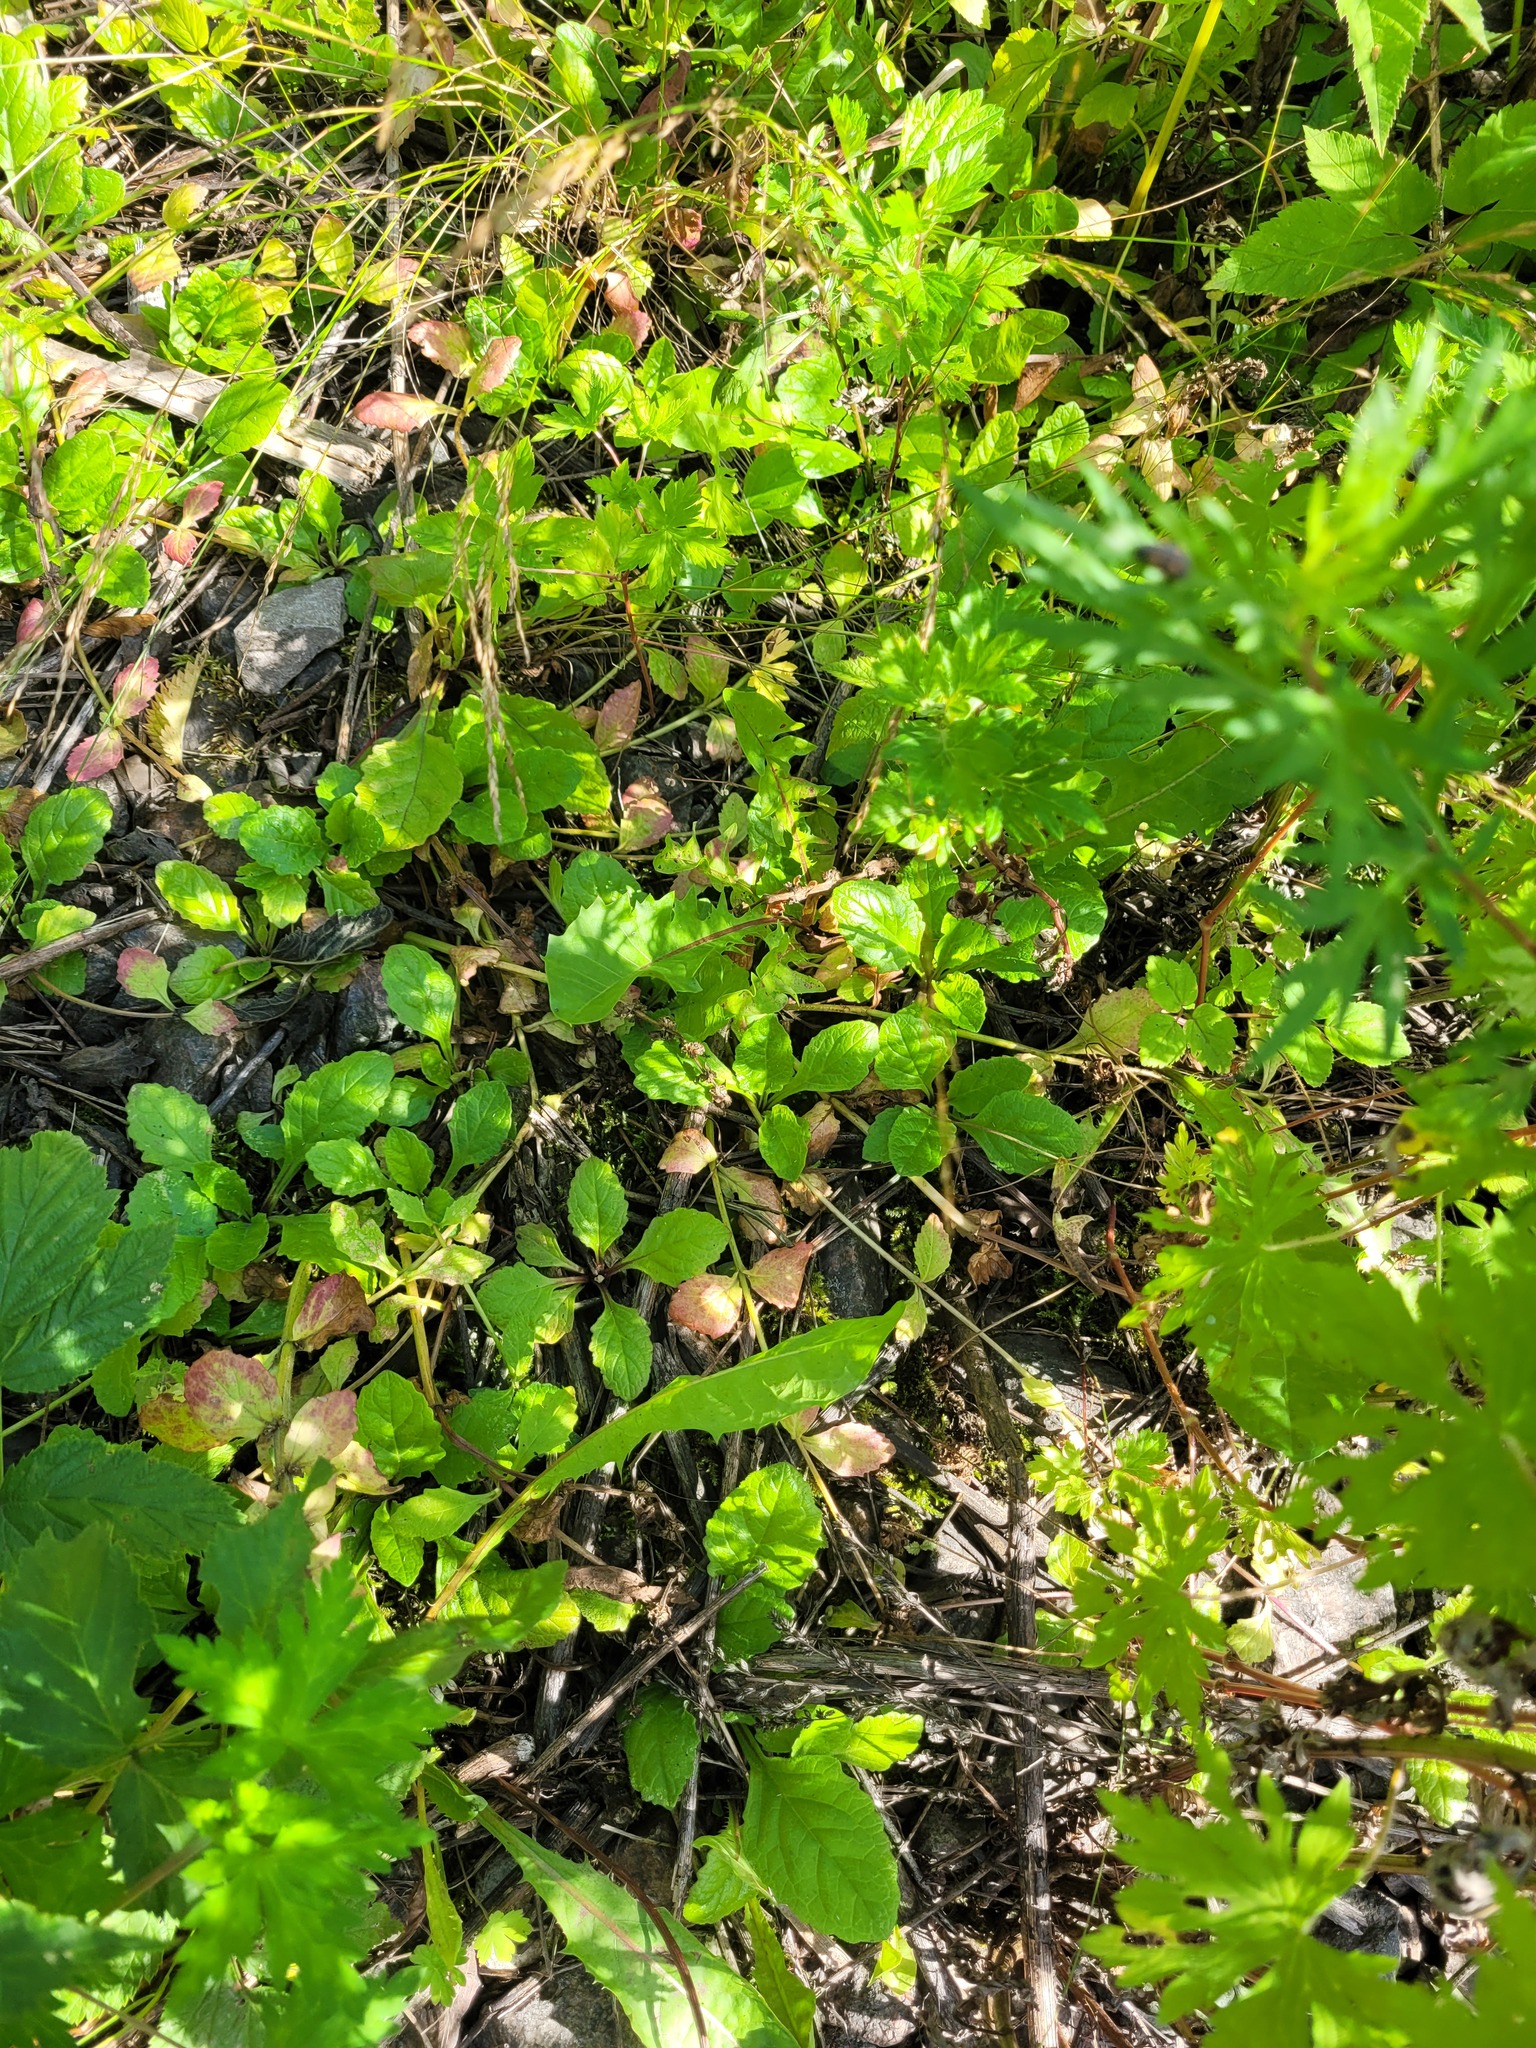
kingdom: Plantae
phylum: Tracheophyta
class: Magnoliopsida
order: Lamiales
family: Lamiaceae
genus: Ajuga
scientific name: Ajuga reptans
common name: Bugle
